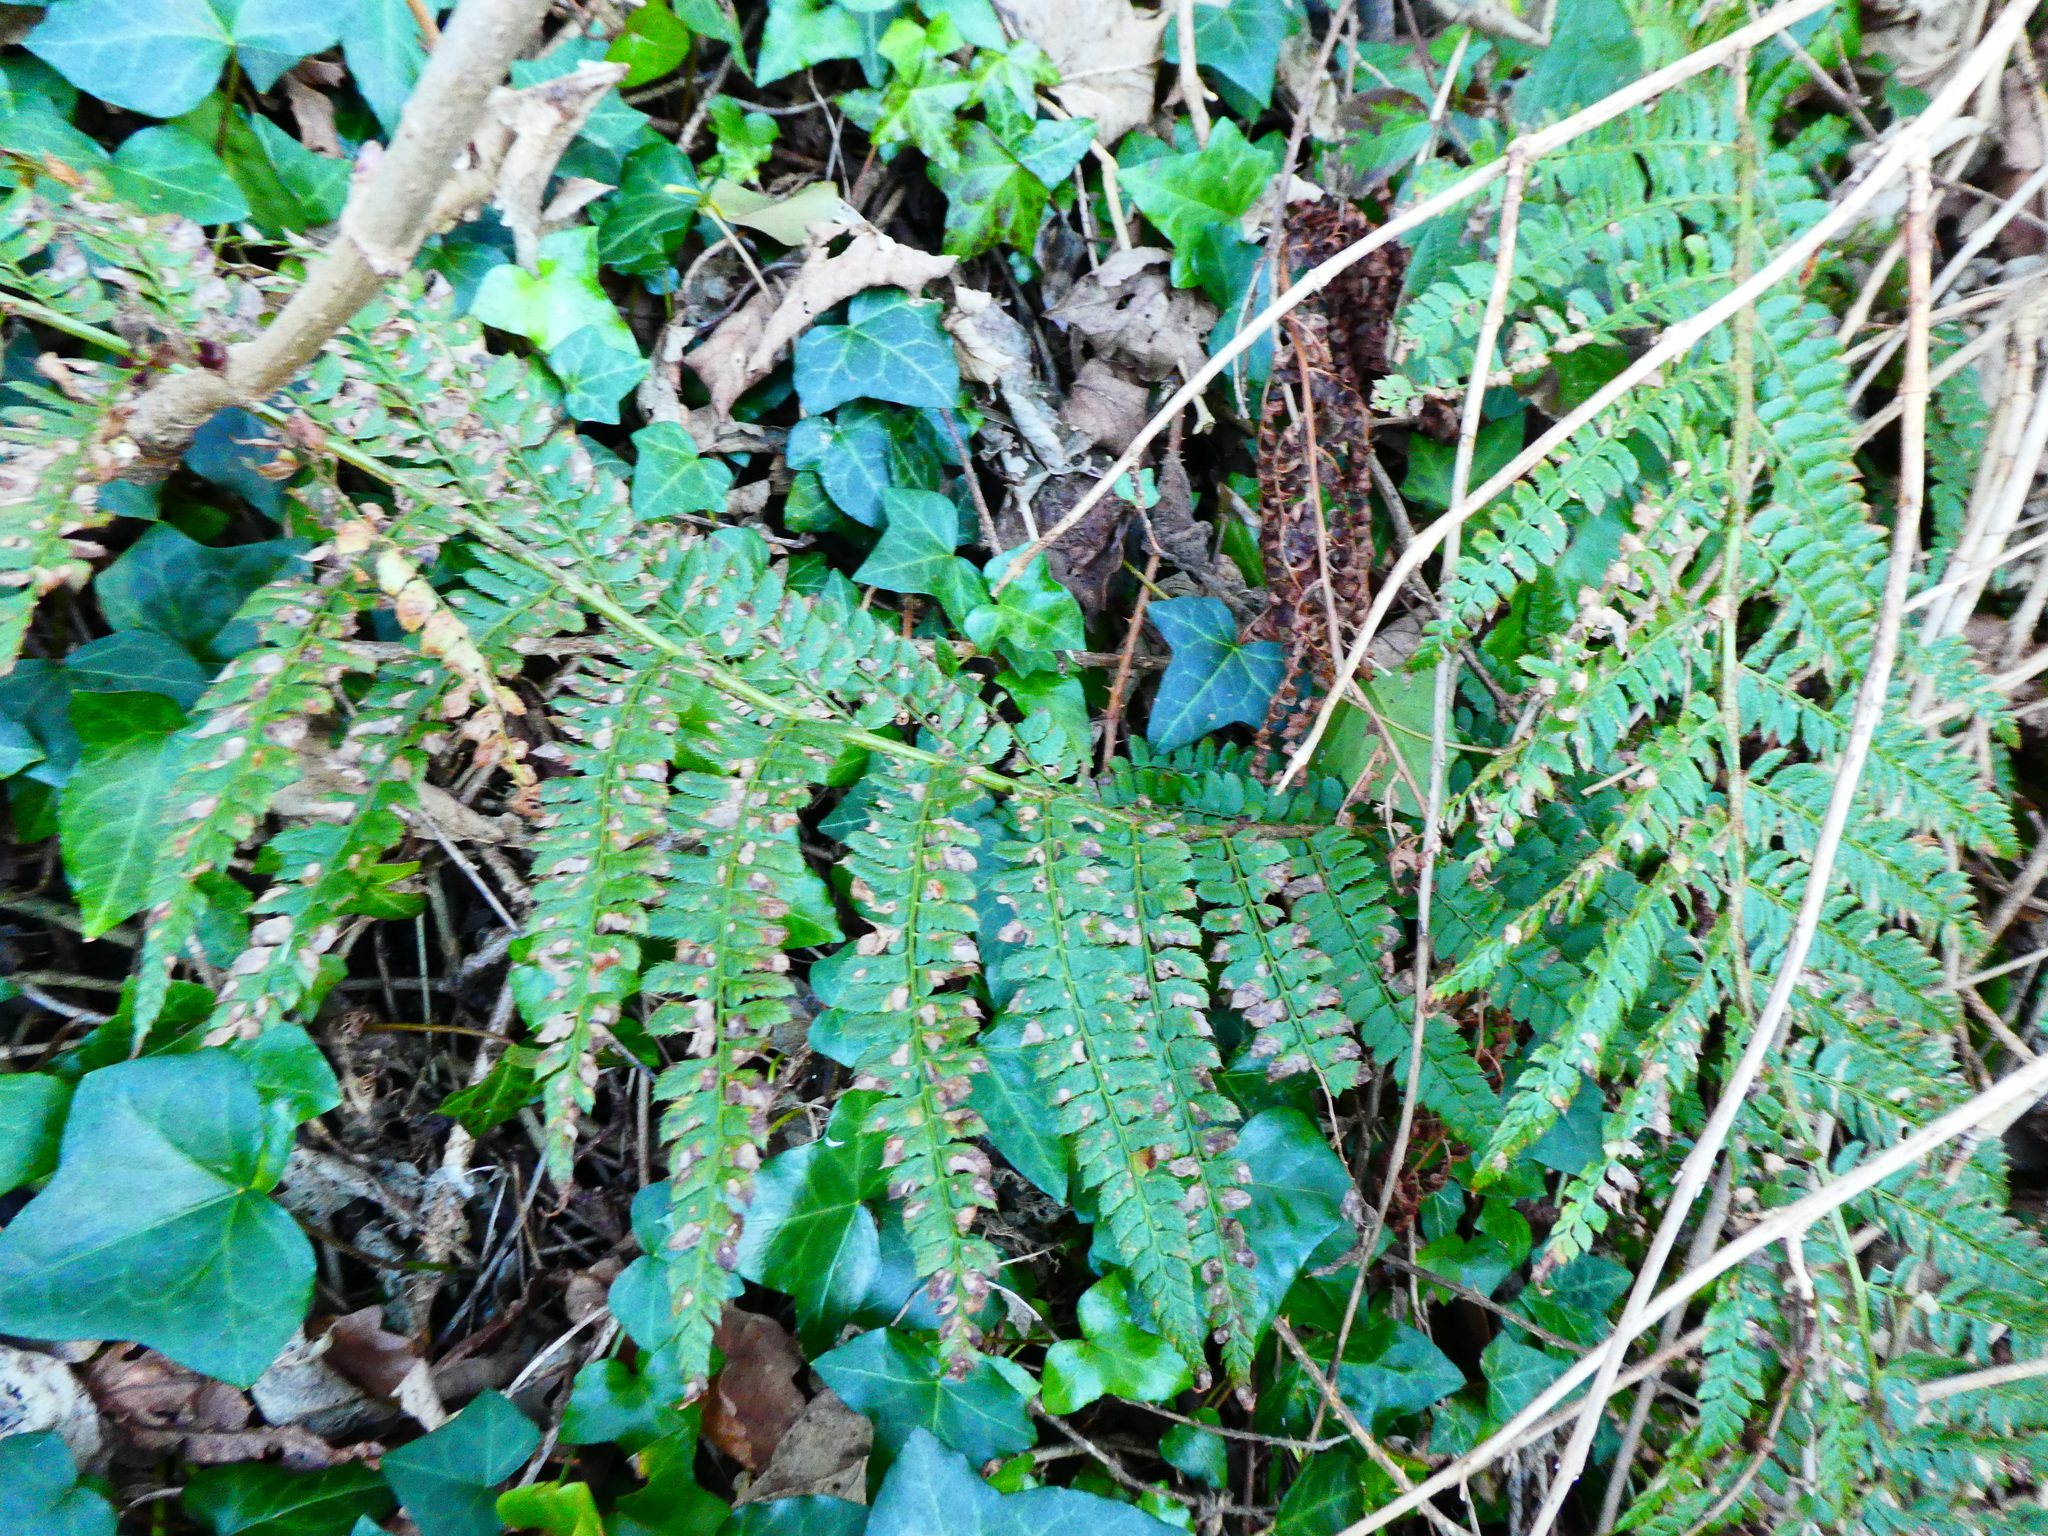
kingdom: Plantae
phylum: Tracheophyta
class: Polypodiopsida
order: Polypodiales
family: Dryopteridaceae
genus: Polystichum
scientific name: Polystichum setiferum
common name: Soft shield-fern
